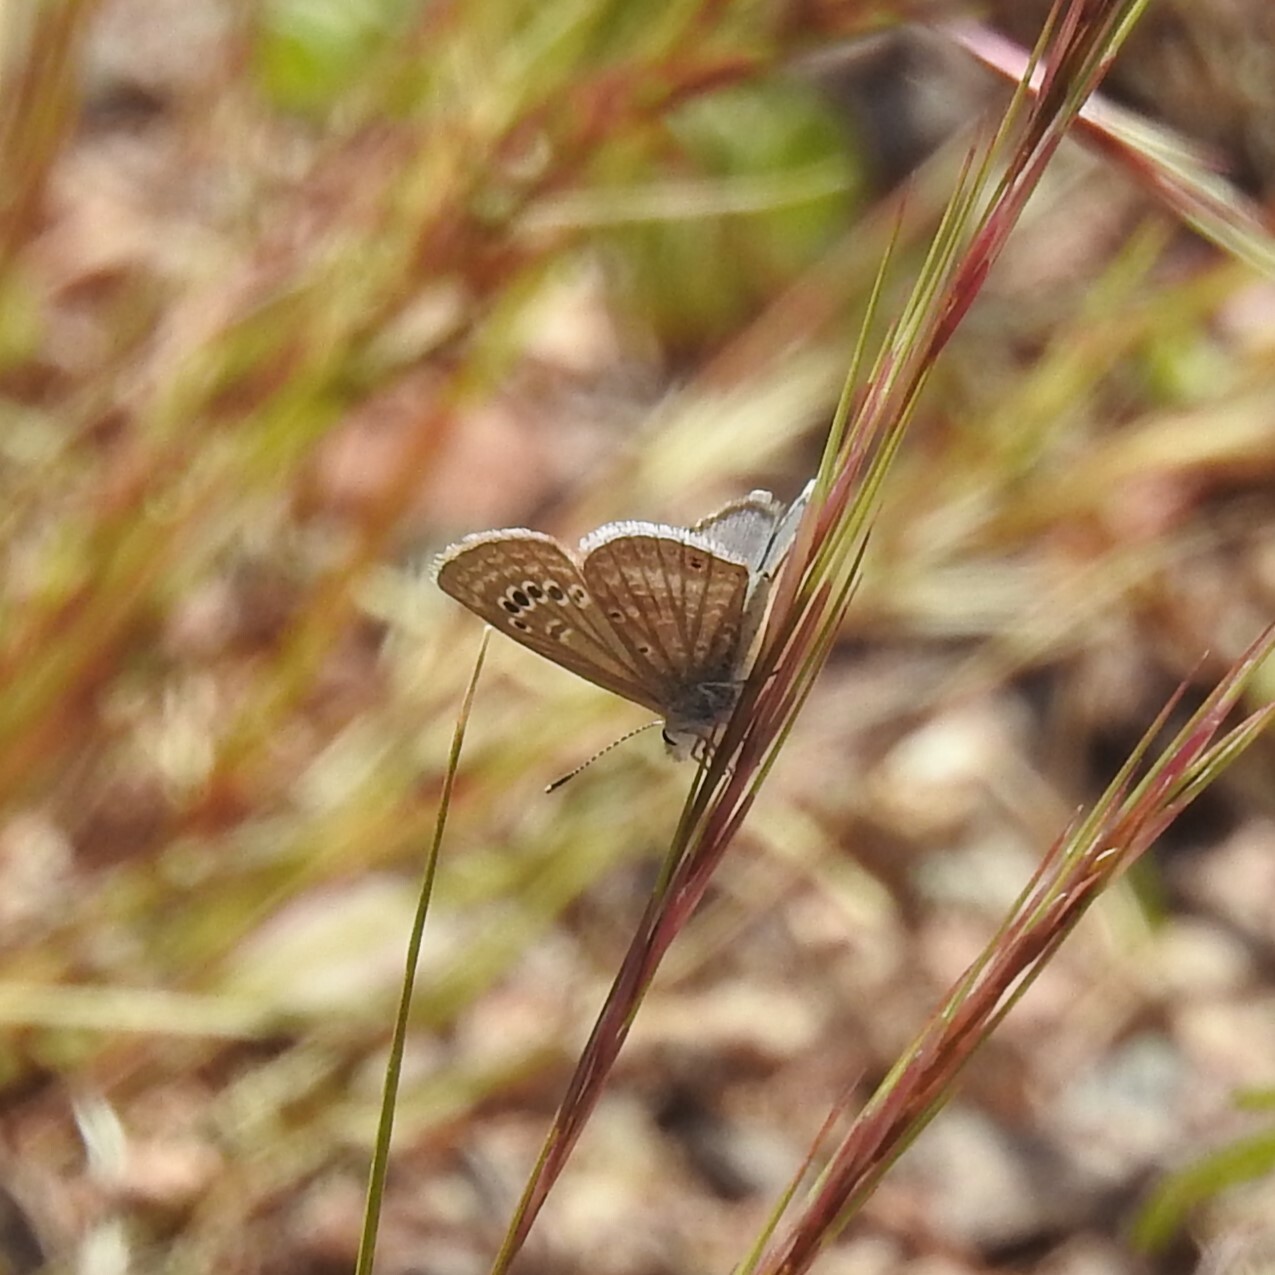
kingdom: Animalia
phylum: Arthropoda
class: Insecta
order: Lepidoptera
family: Lycaenidae
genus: Echinargus
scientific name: Echinargus isola
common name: Reakirt's blue
